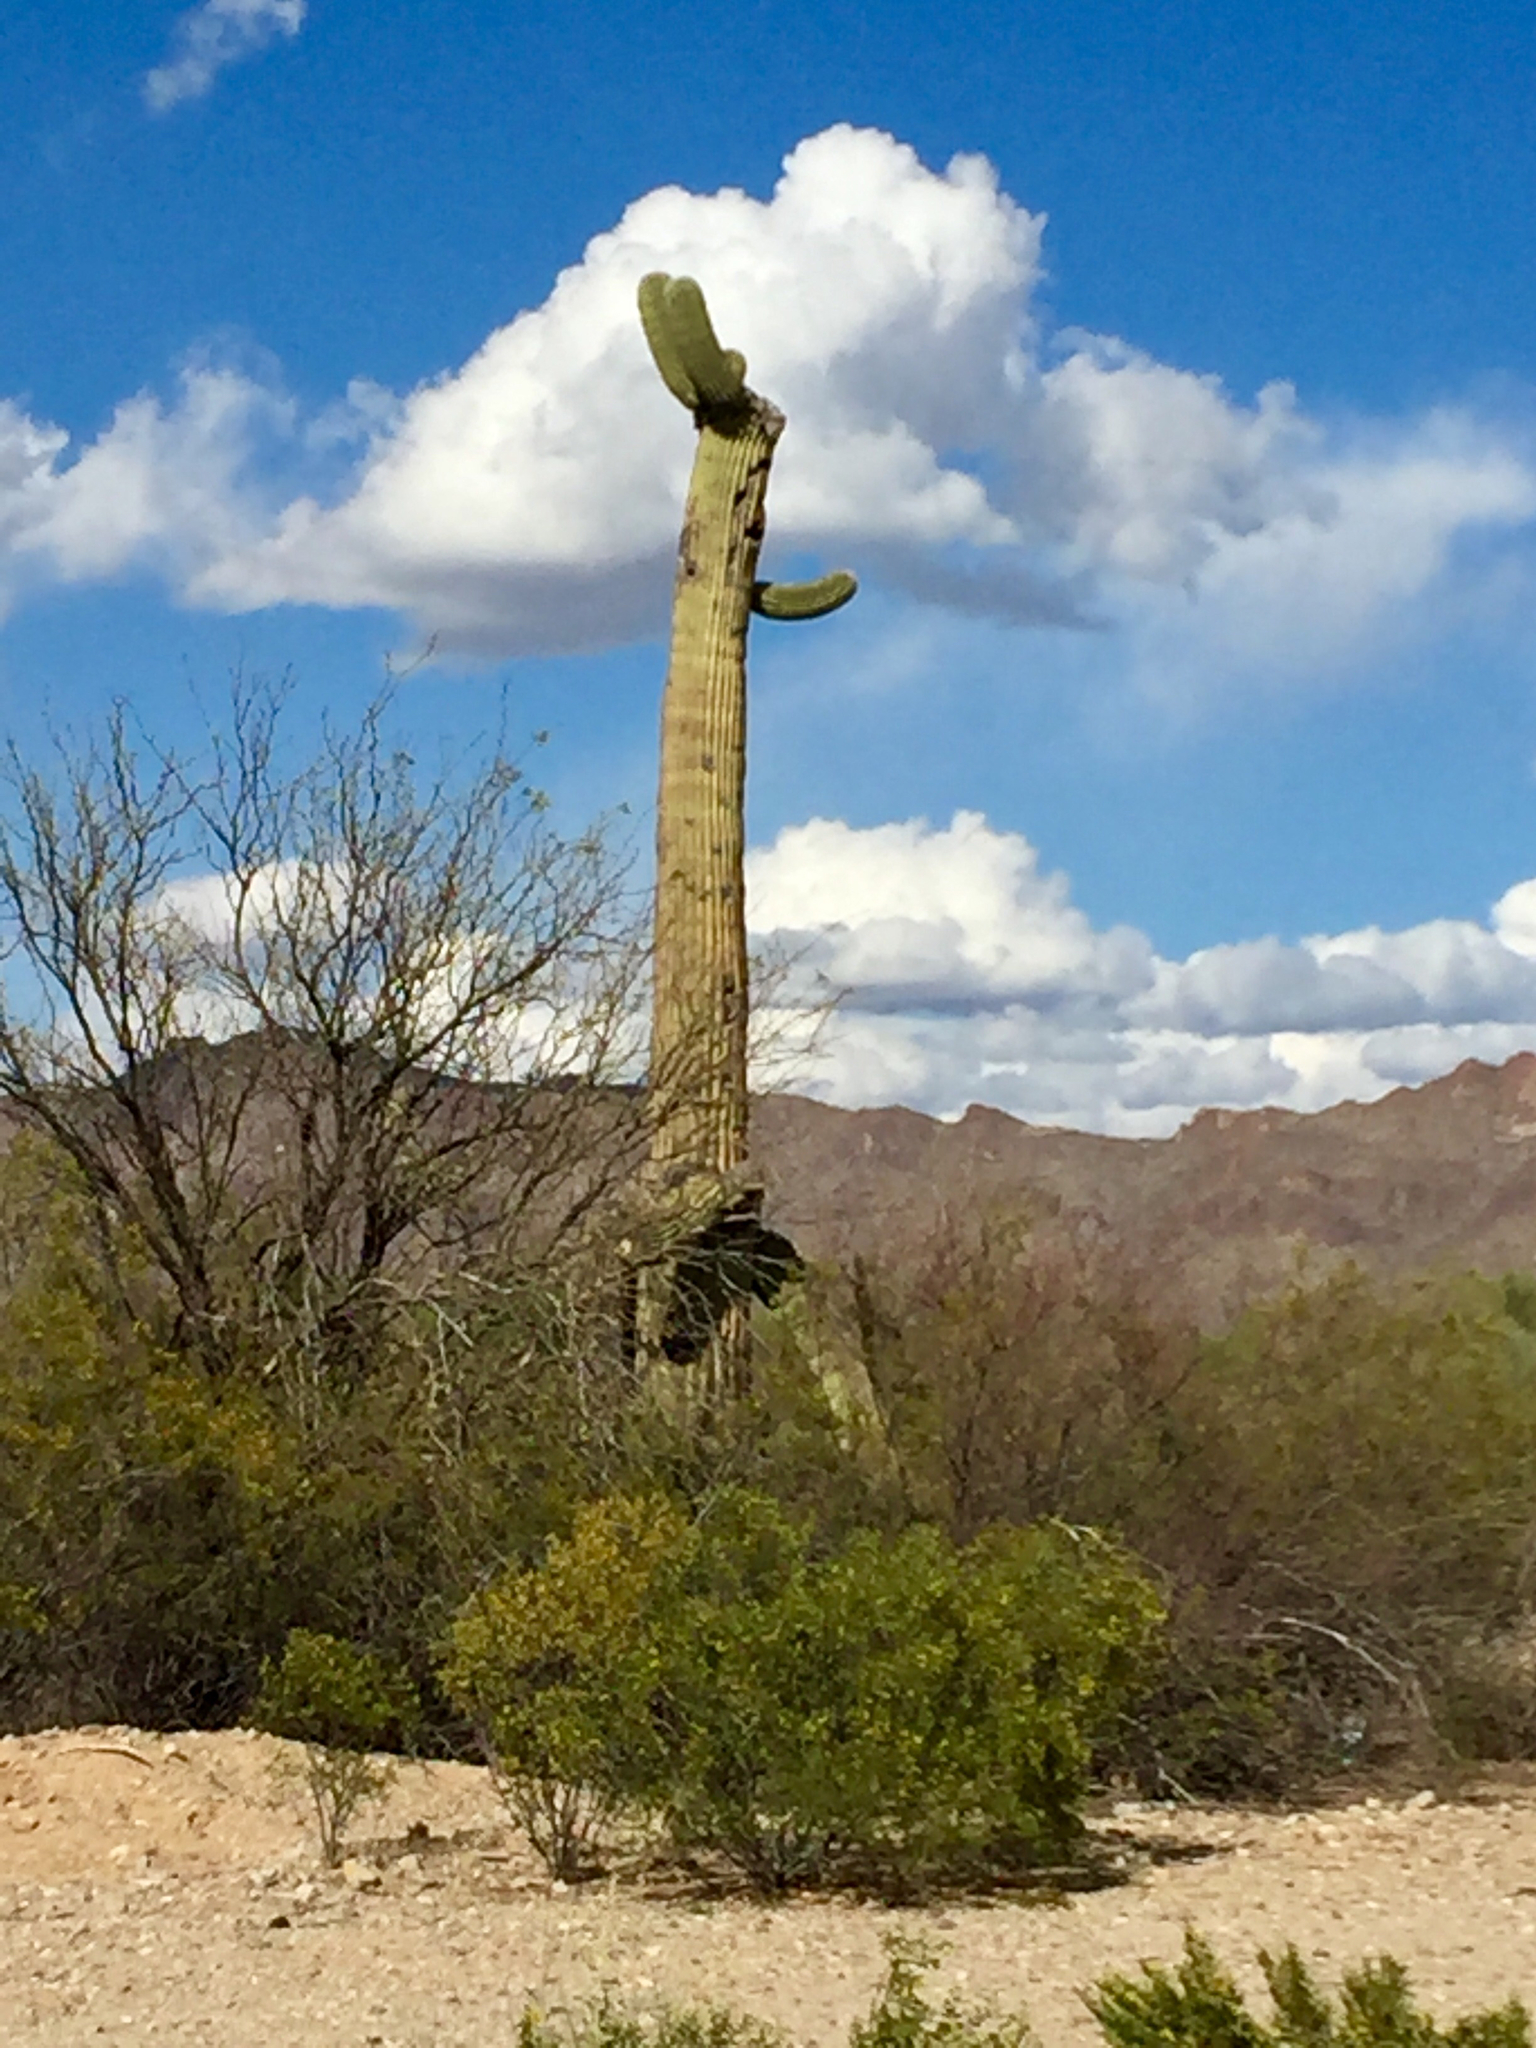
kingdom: Plantae
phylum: Tracheophyta
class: Magnoliopsida
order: Caryophyllales
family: Cactaceae
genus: Carnegiea
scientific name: Carnegiea gigantea
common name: Saguaro
